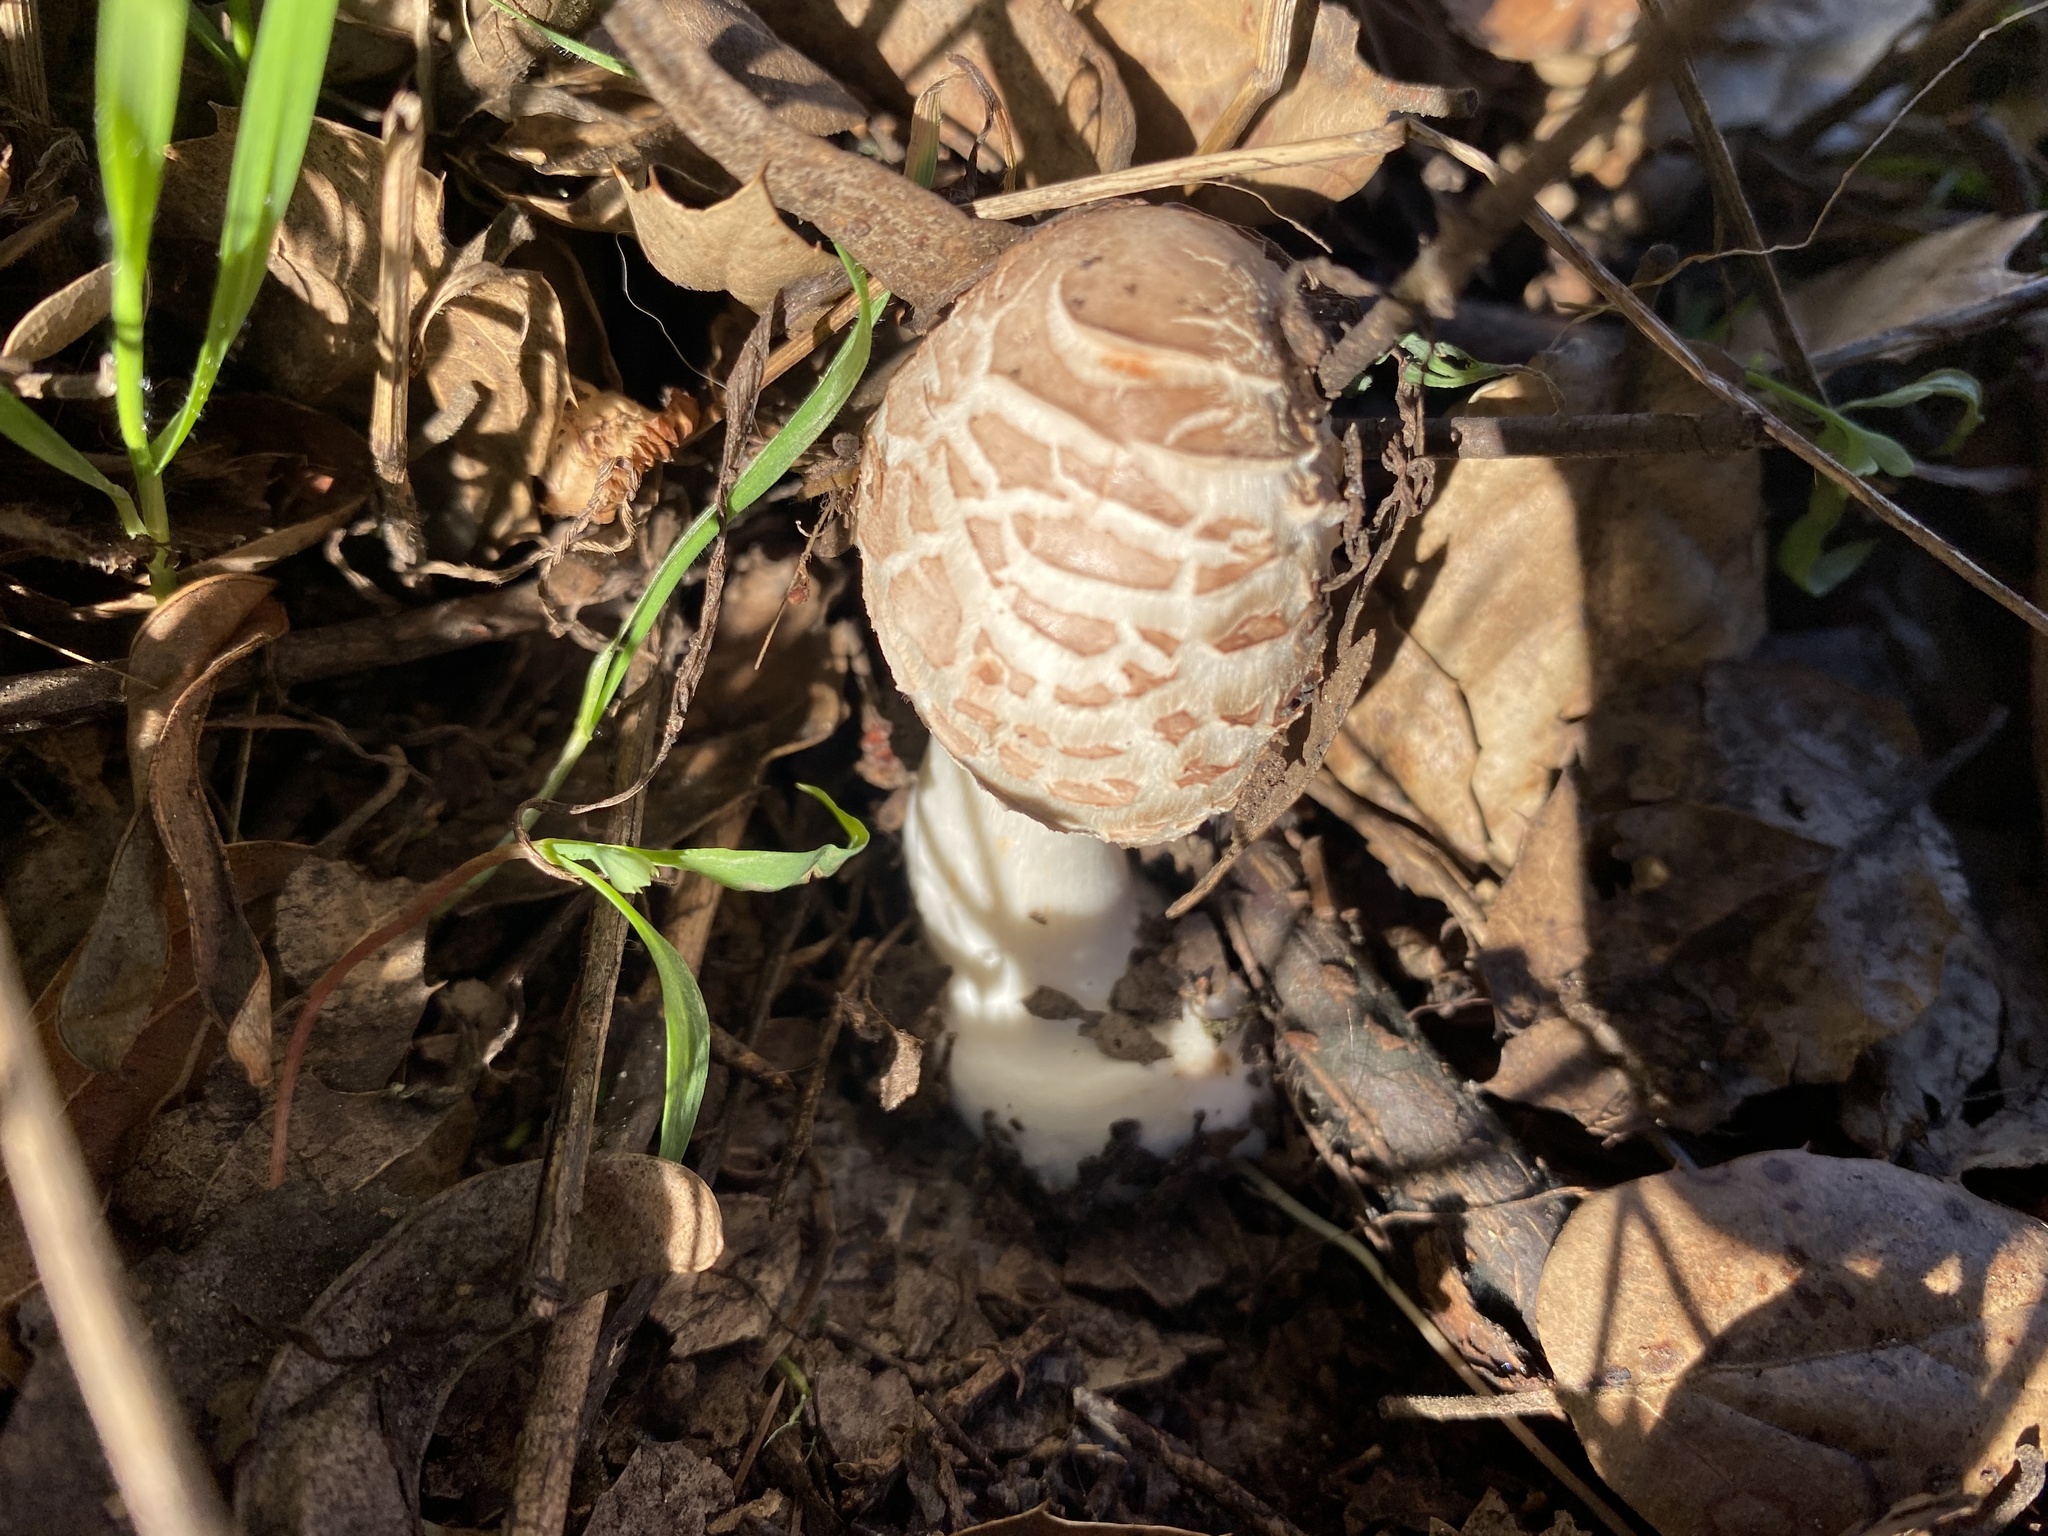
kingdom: Fungi
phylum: Basidiomycota
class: Agaricomycetes
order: Agaricales
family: Agaricaceae
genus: Chlorophyllum
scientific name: Chlorophyllum brunneum
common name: Brown parasol
